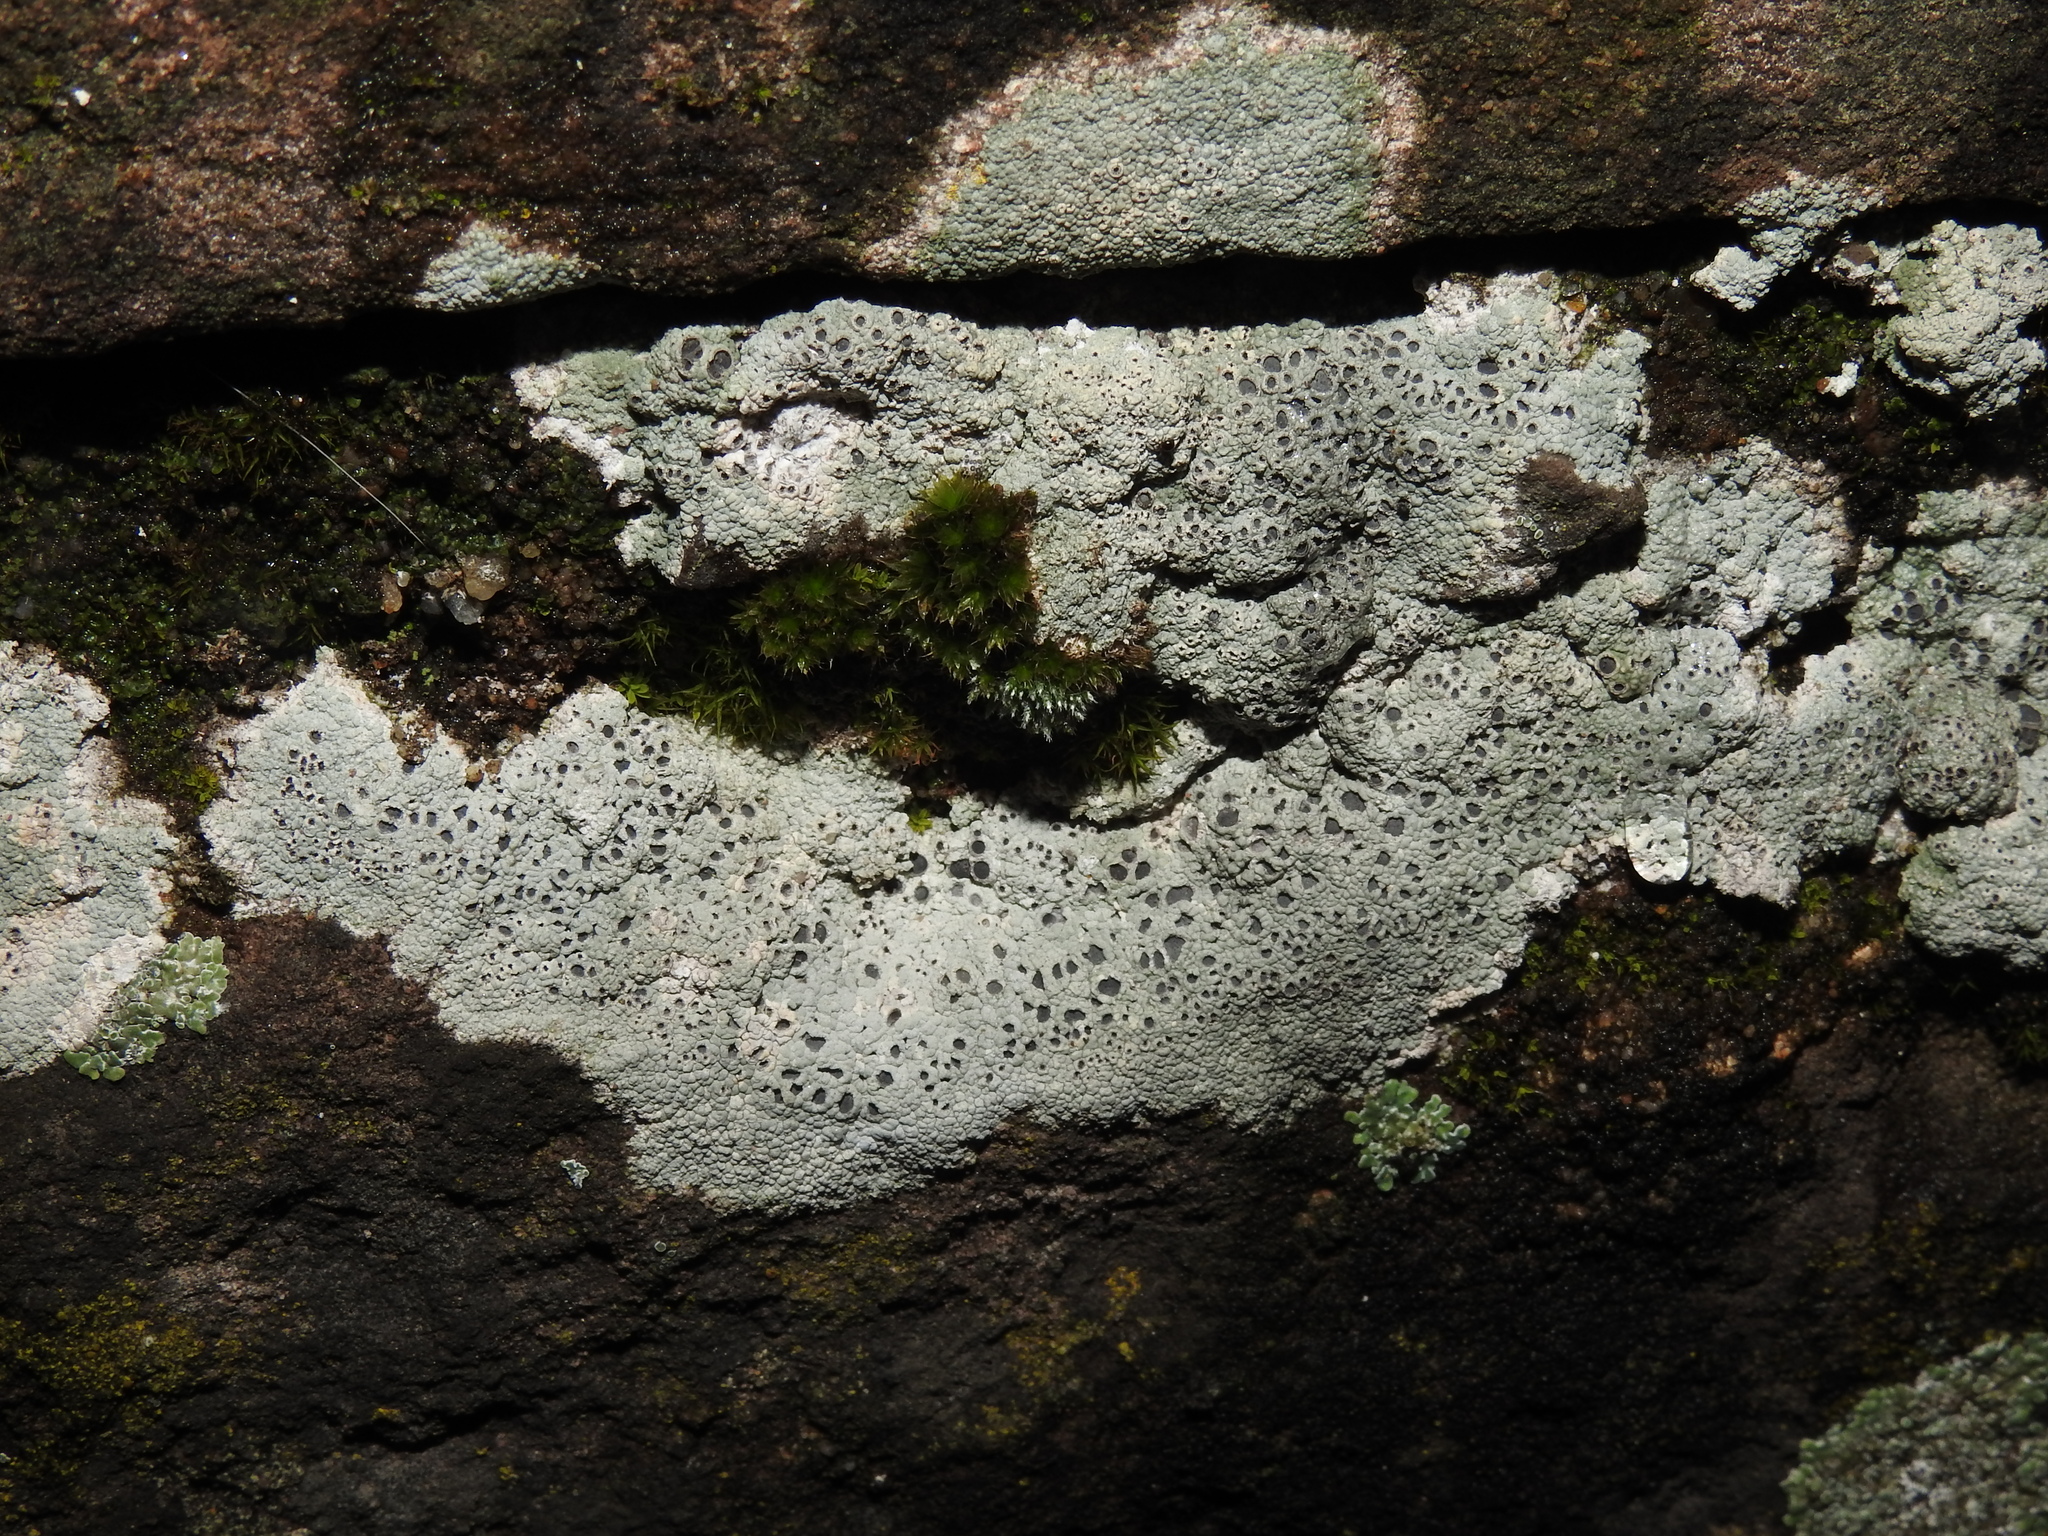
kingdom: Fungi
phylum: Ascomycota
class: Lecanoromycetes
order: Ostropales
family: Graphidaceae
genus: Diploschistes
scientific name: Diploschistes scruposus
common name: Crater lichen
